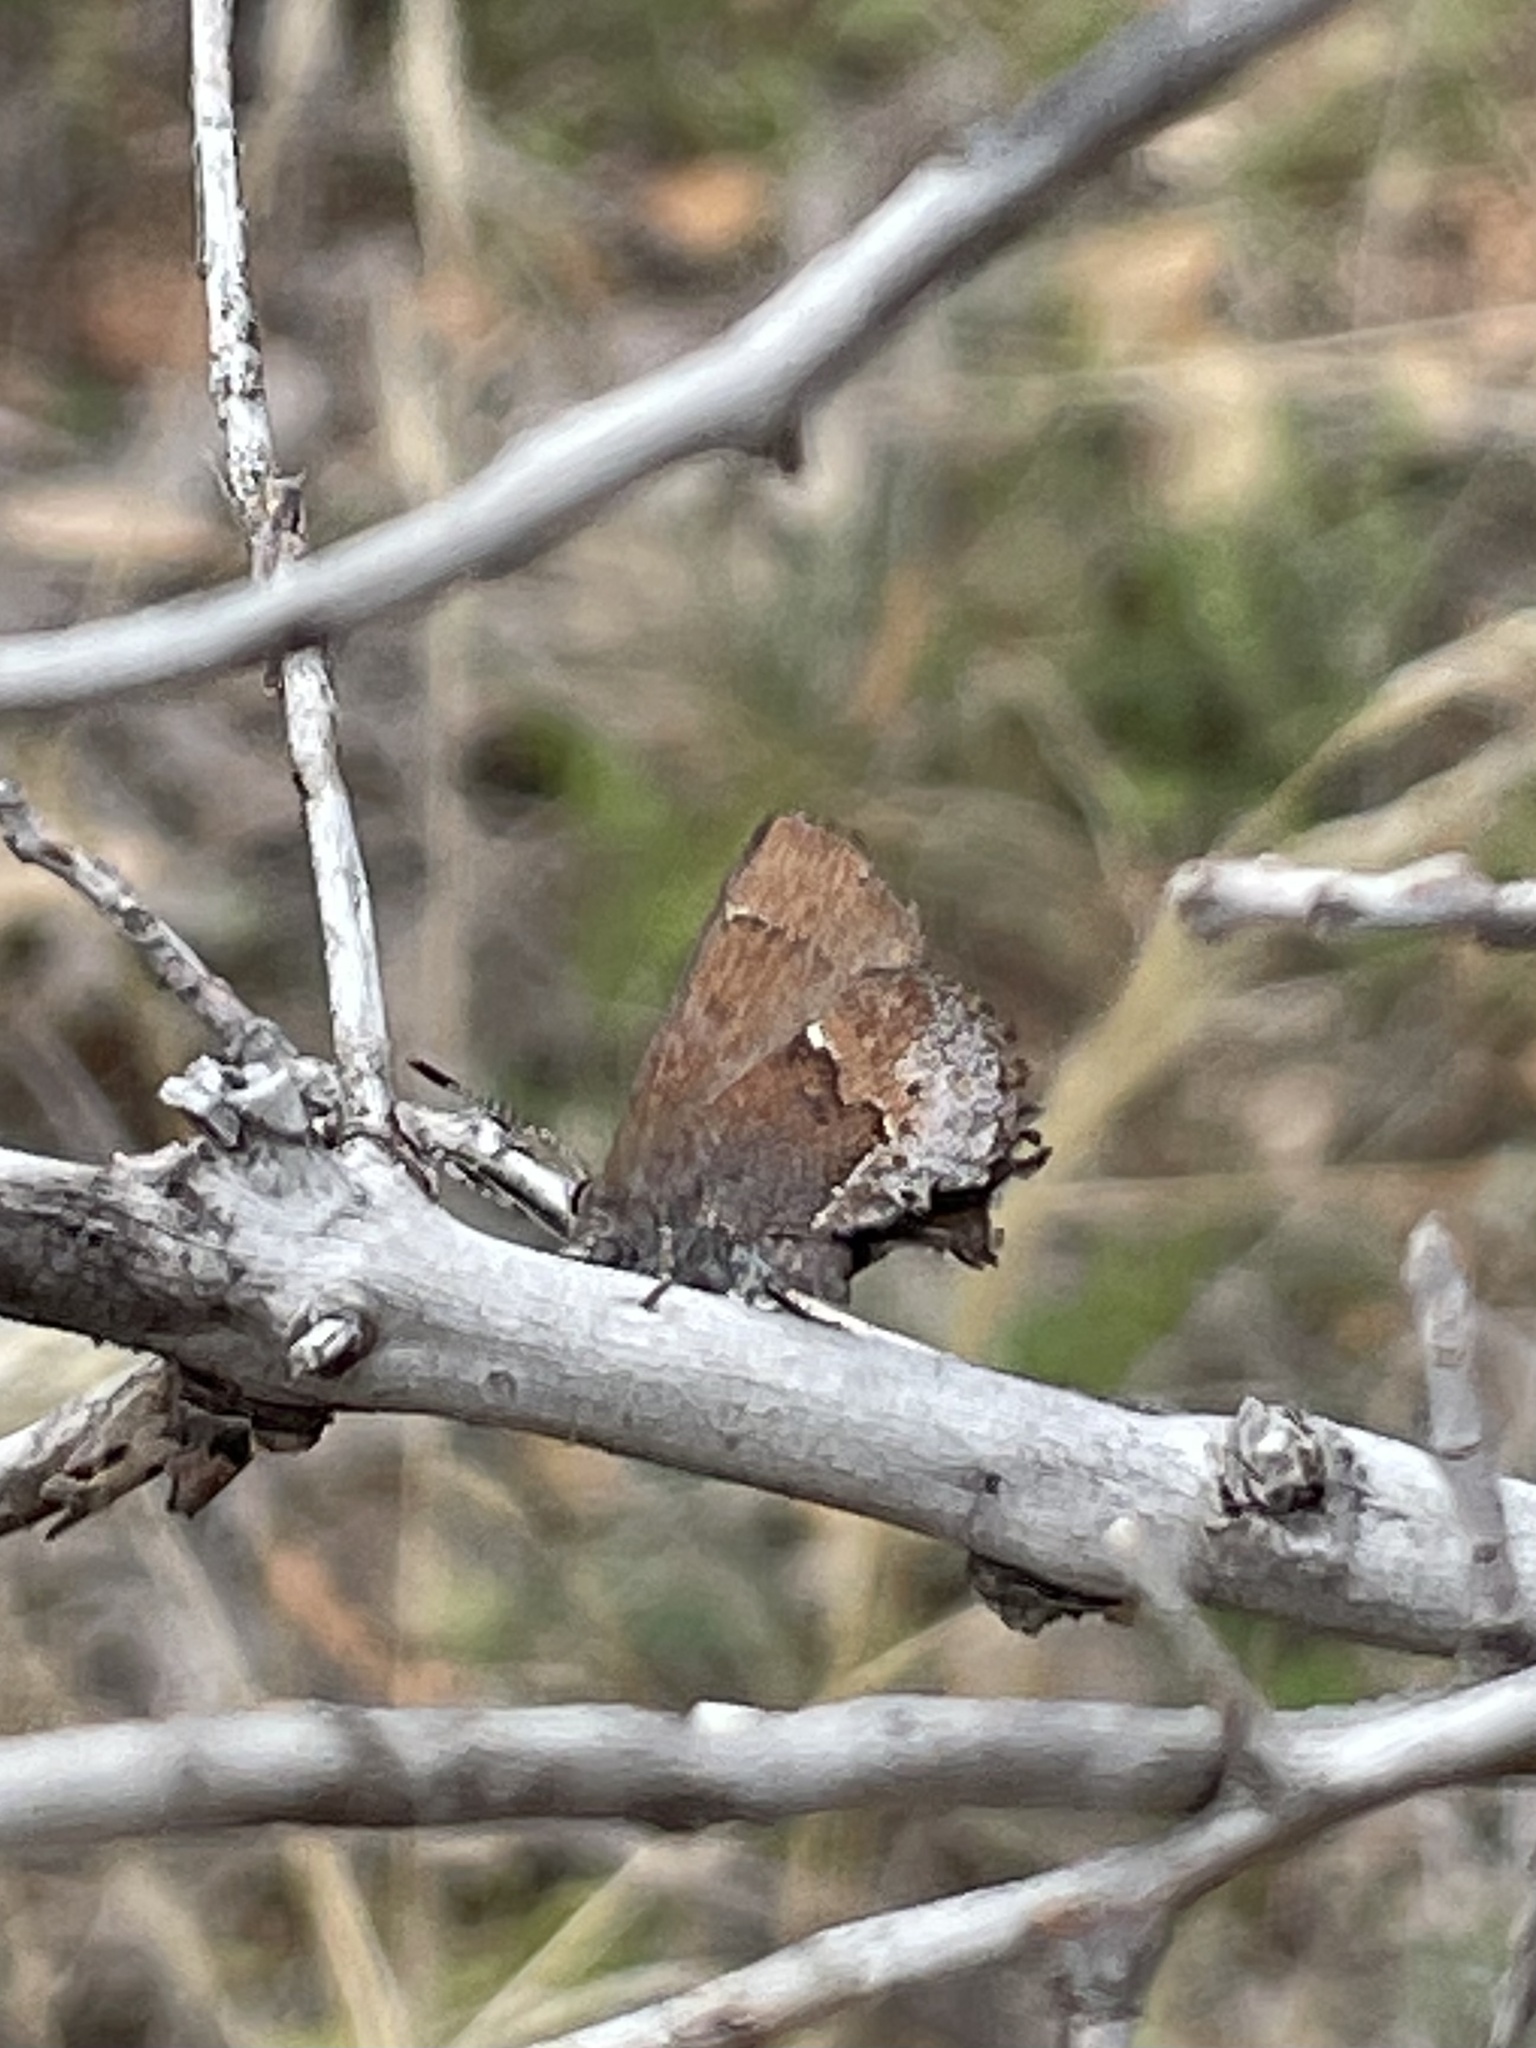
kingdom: Animalia
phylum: Arthropoda
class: Insecta
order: Lepidoptera
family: Lycaenidae
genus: Incisalia
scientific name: Incisalia henrici
